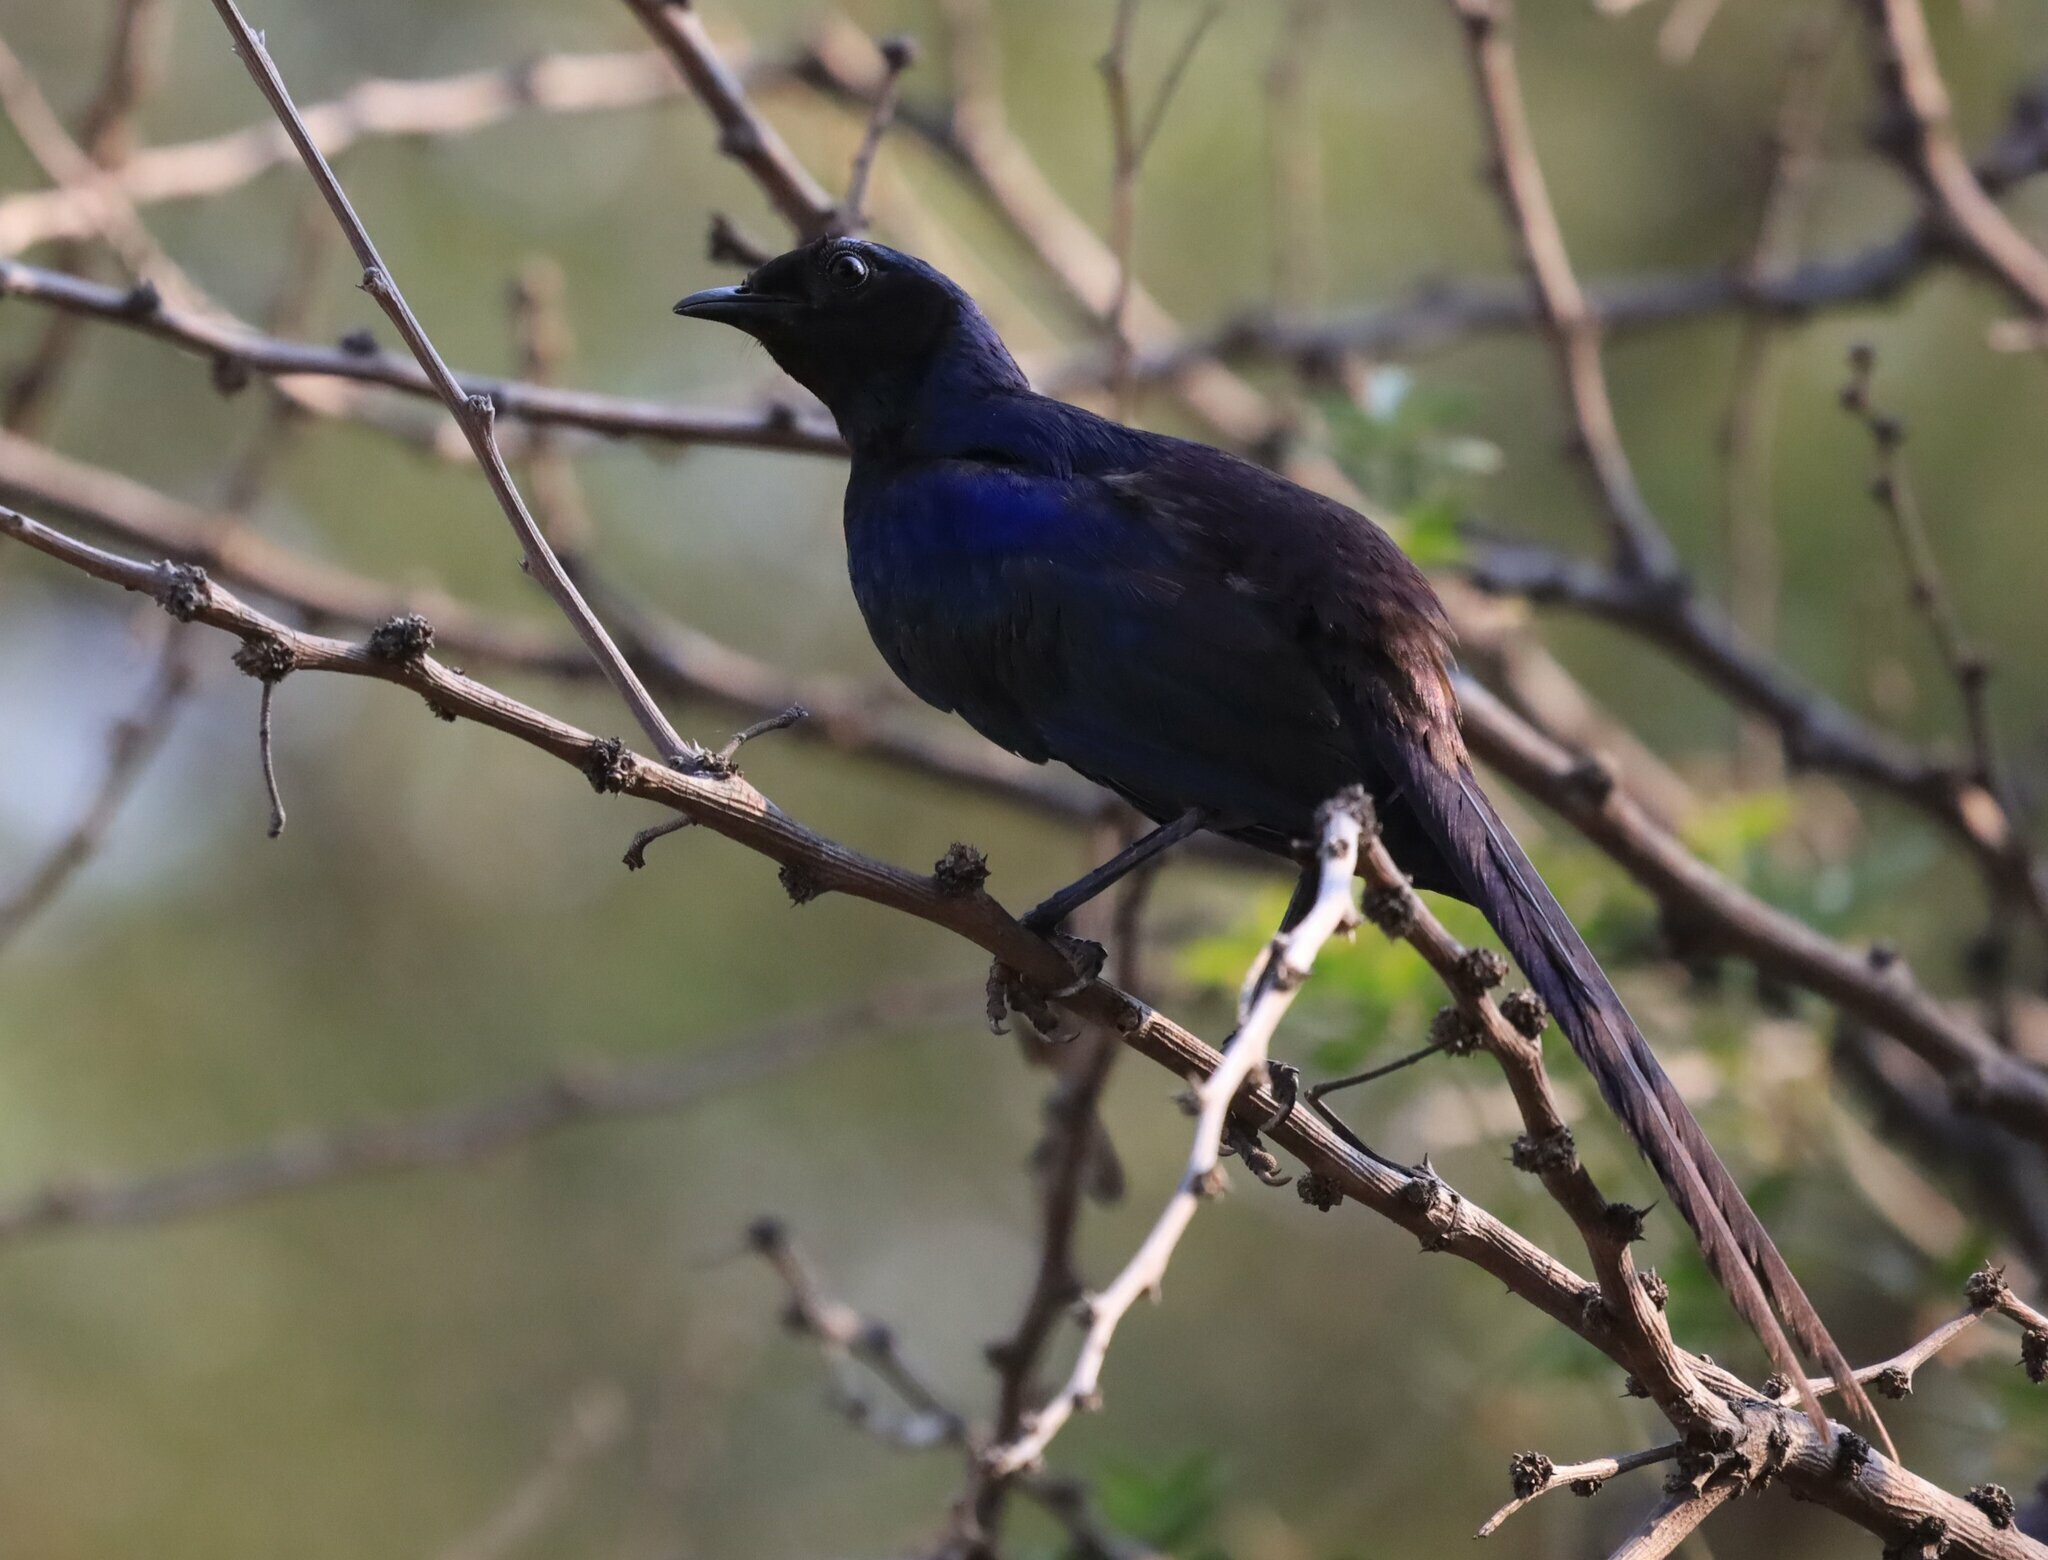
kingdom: Animalia
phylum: Chordata
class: Aves
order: Passeriformes
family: Sturnidae
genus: Lamprotornis
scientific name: Lamprotornis mevesii
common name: Meves's starling
